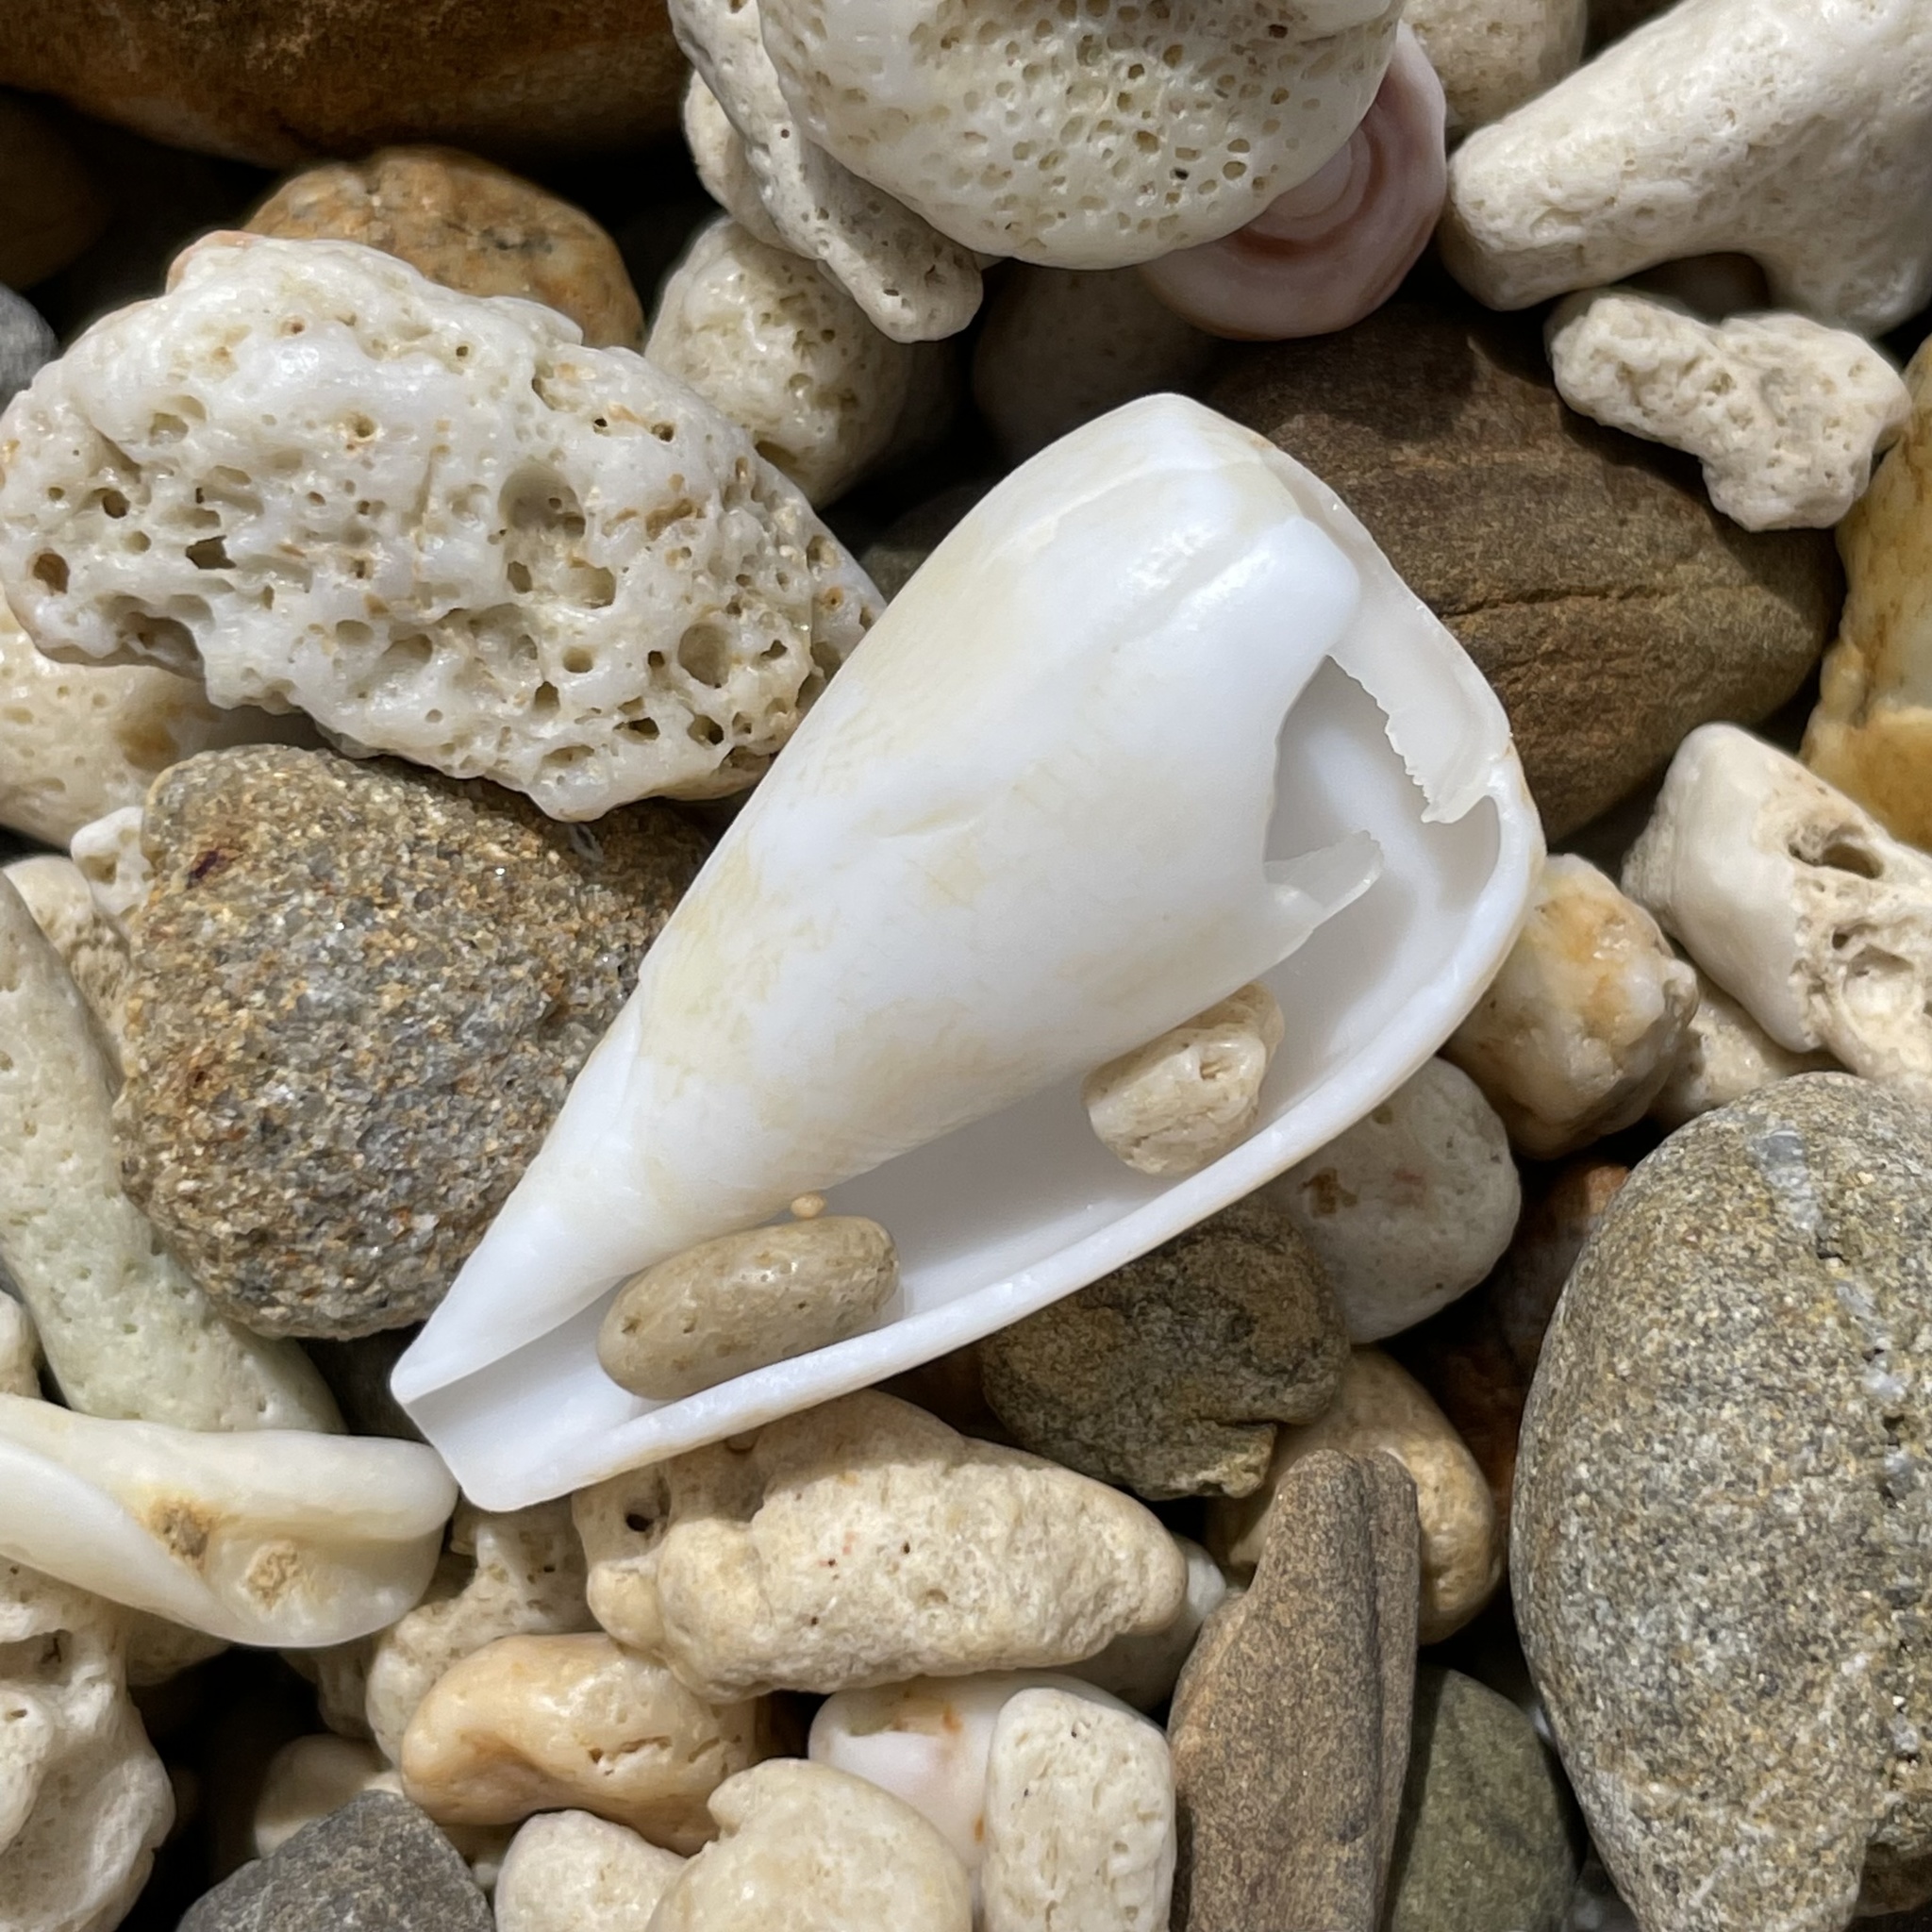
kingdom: Animalia
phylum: Mollusca
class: Gastropoda
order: Neogastropoda
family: Conidae
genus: Conus
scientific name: Conus spectrum
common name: Spectral cone
